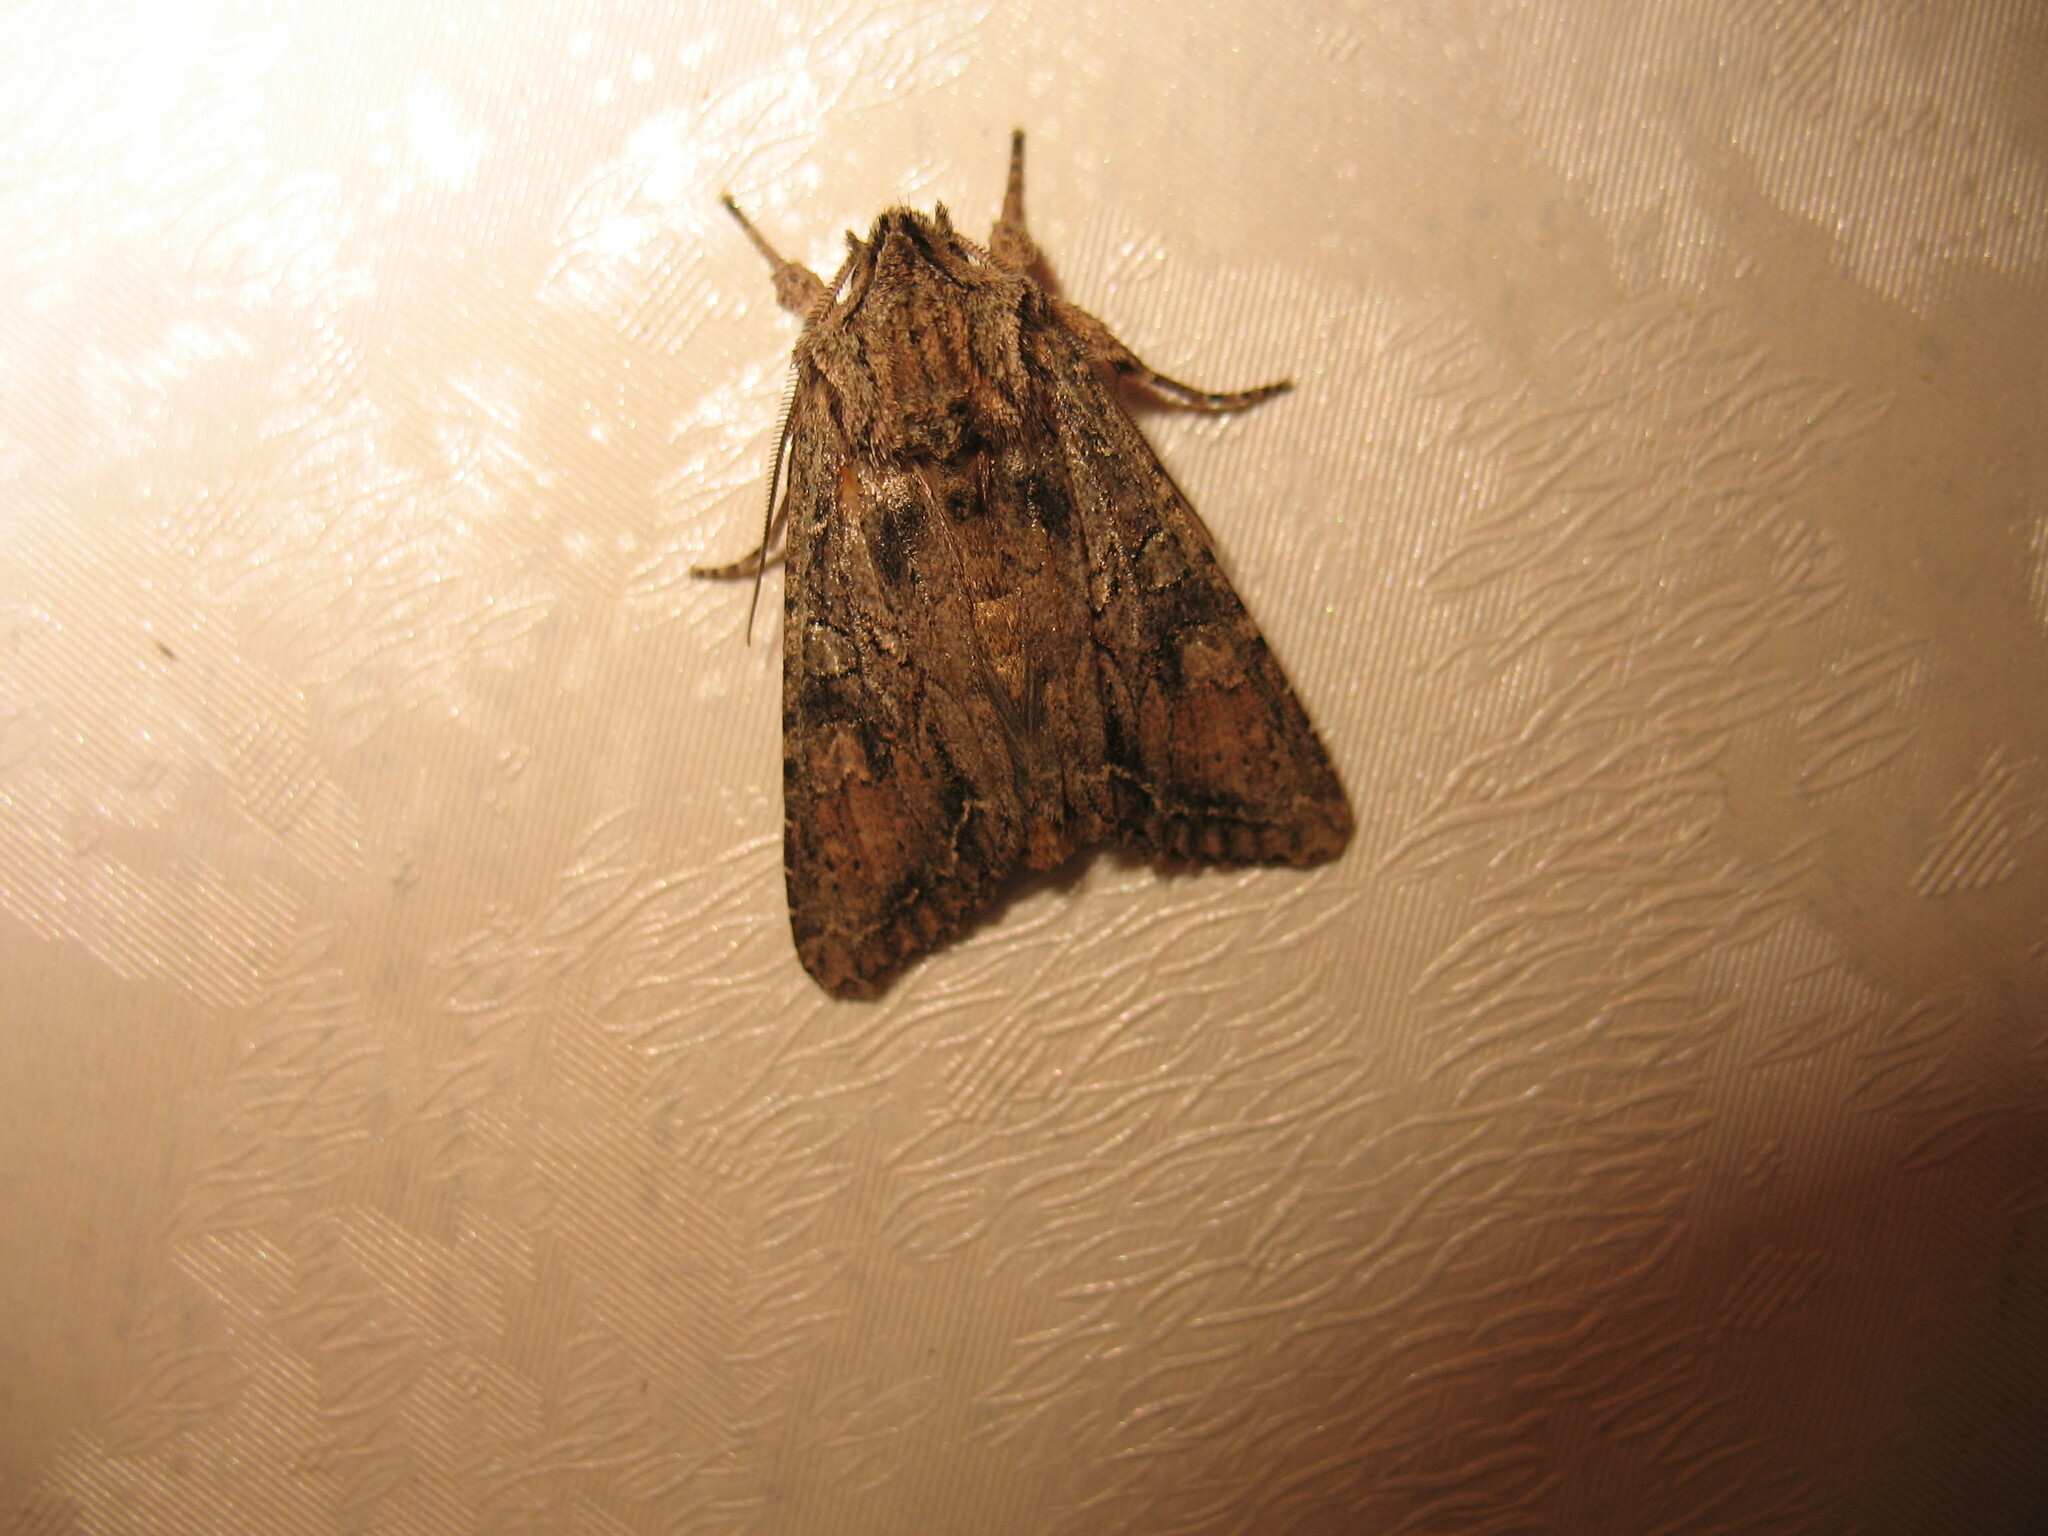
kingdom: Animalia
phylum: Arthropoda
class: Insecta
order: Lepidoptera
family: Noctuidae
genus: Ichneutica
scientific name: Ichneutica mutans
